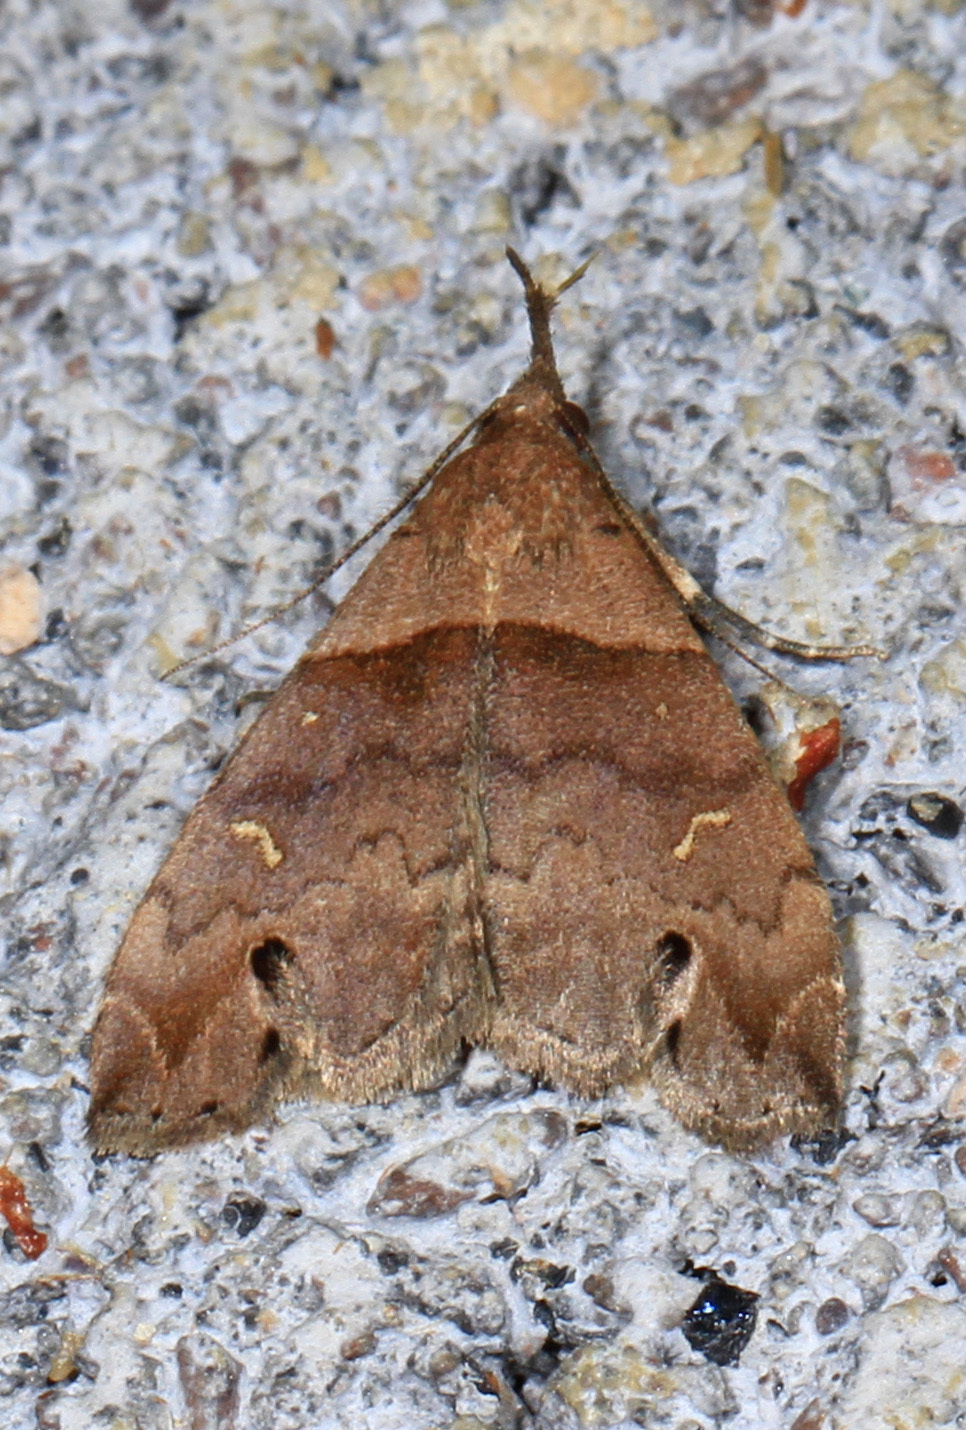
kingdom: Animalia
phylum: Arthropoda
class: Insecta
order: Lepidoptera
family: Erebidae
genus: Lascoria
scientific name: Lascoria ambigualis
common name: Ambiguous moth
